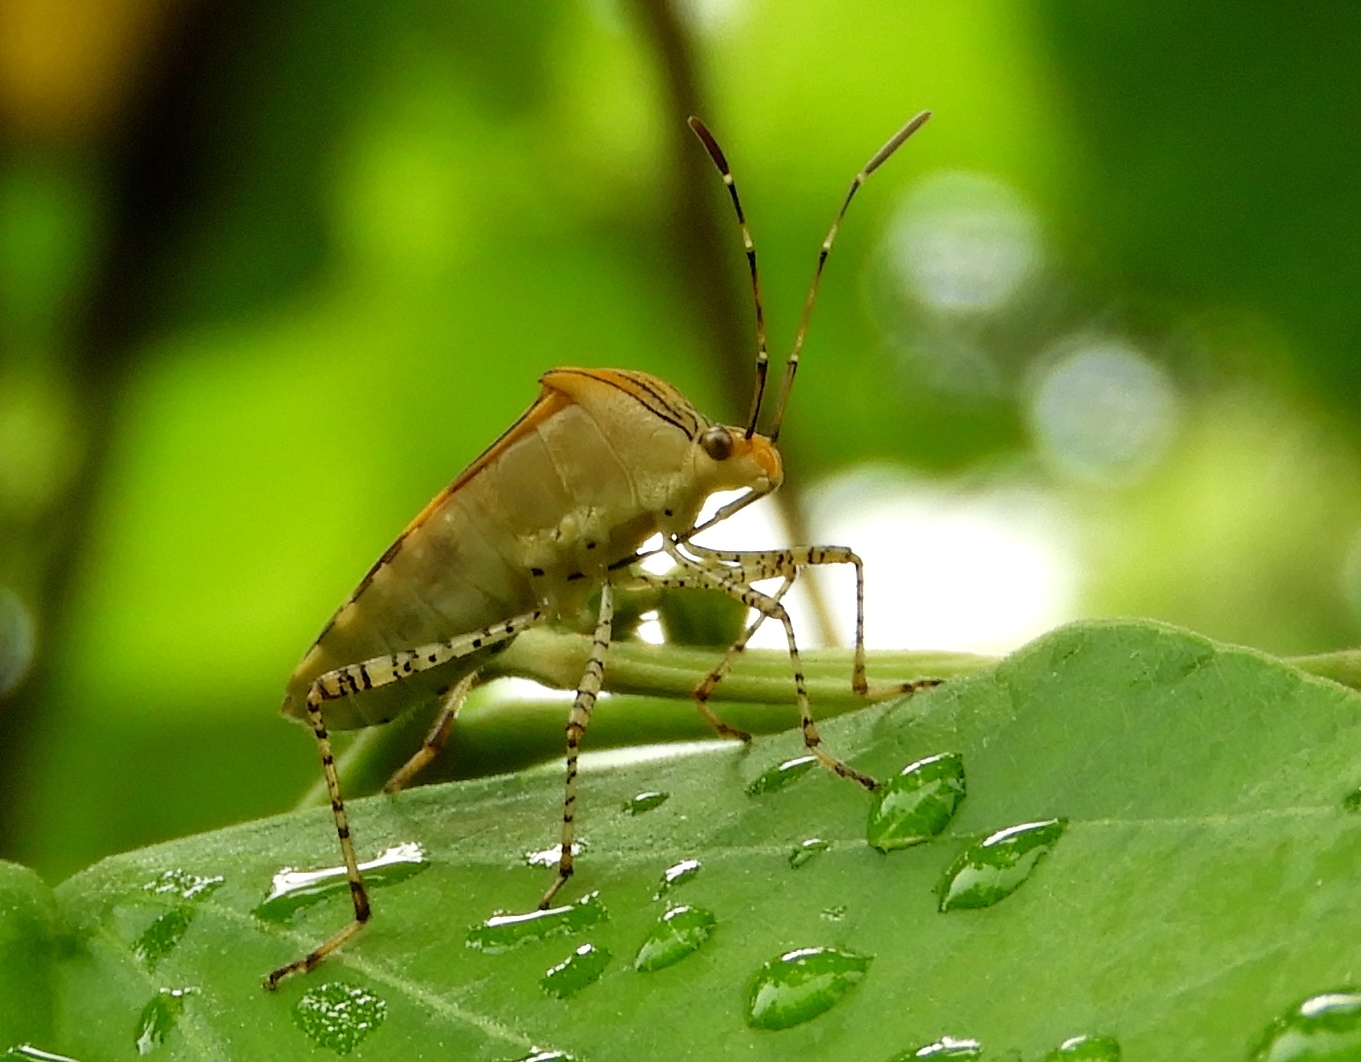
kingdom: Animalia
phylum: Arthropoda
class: Insecta
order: Hemiptera
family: Coreidae
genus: Hypselonotus
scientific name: Hypselonotus lineatus
